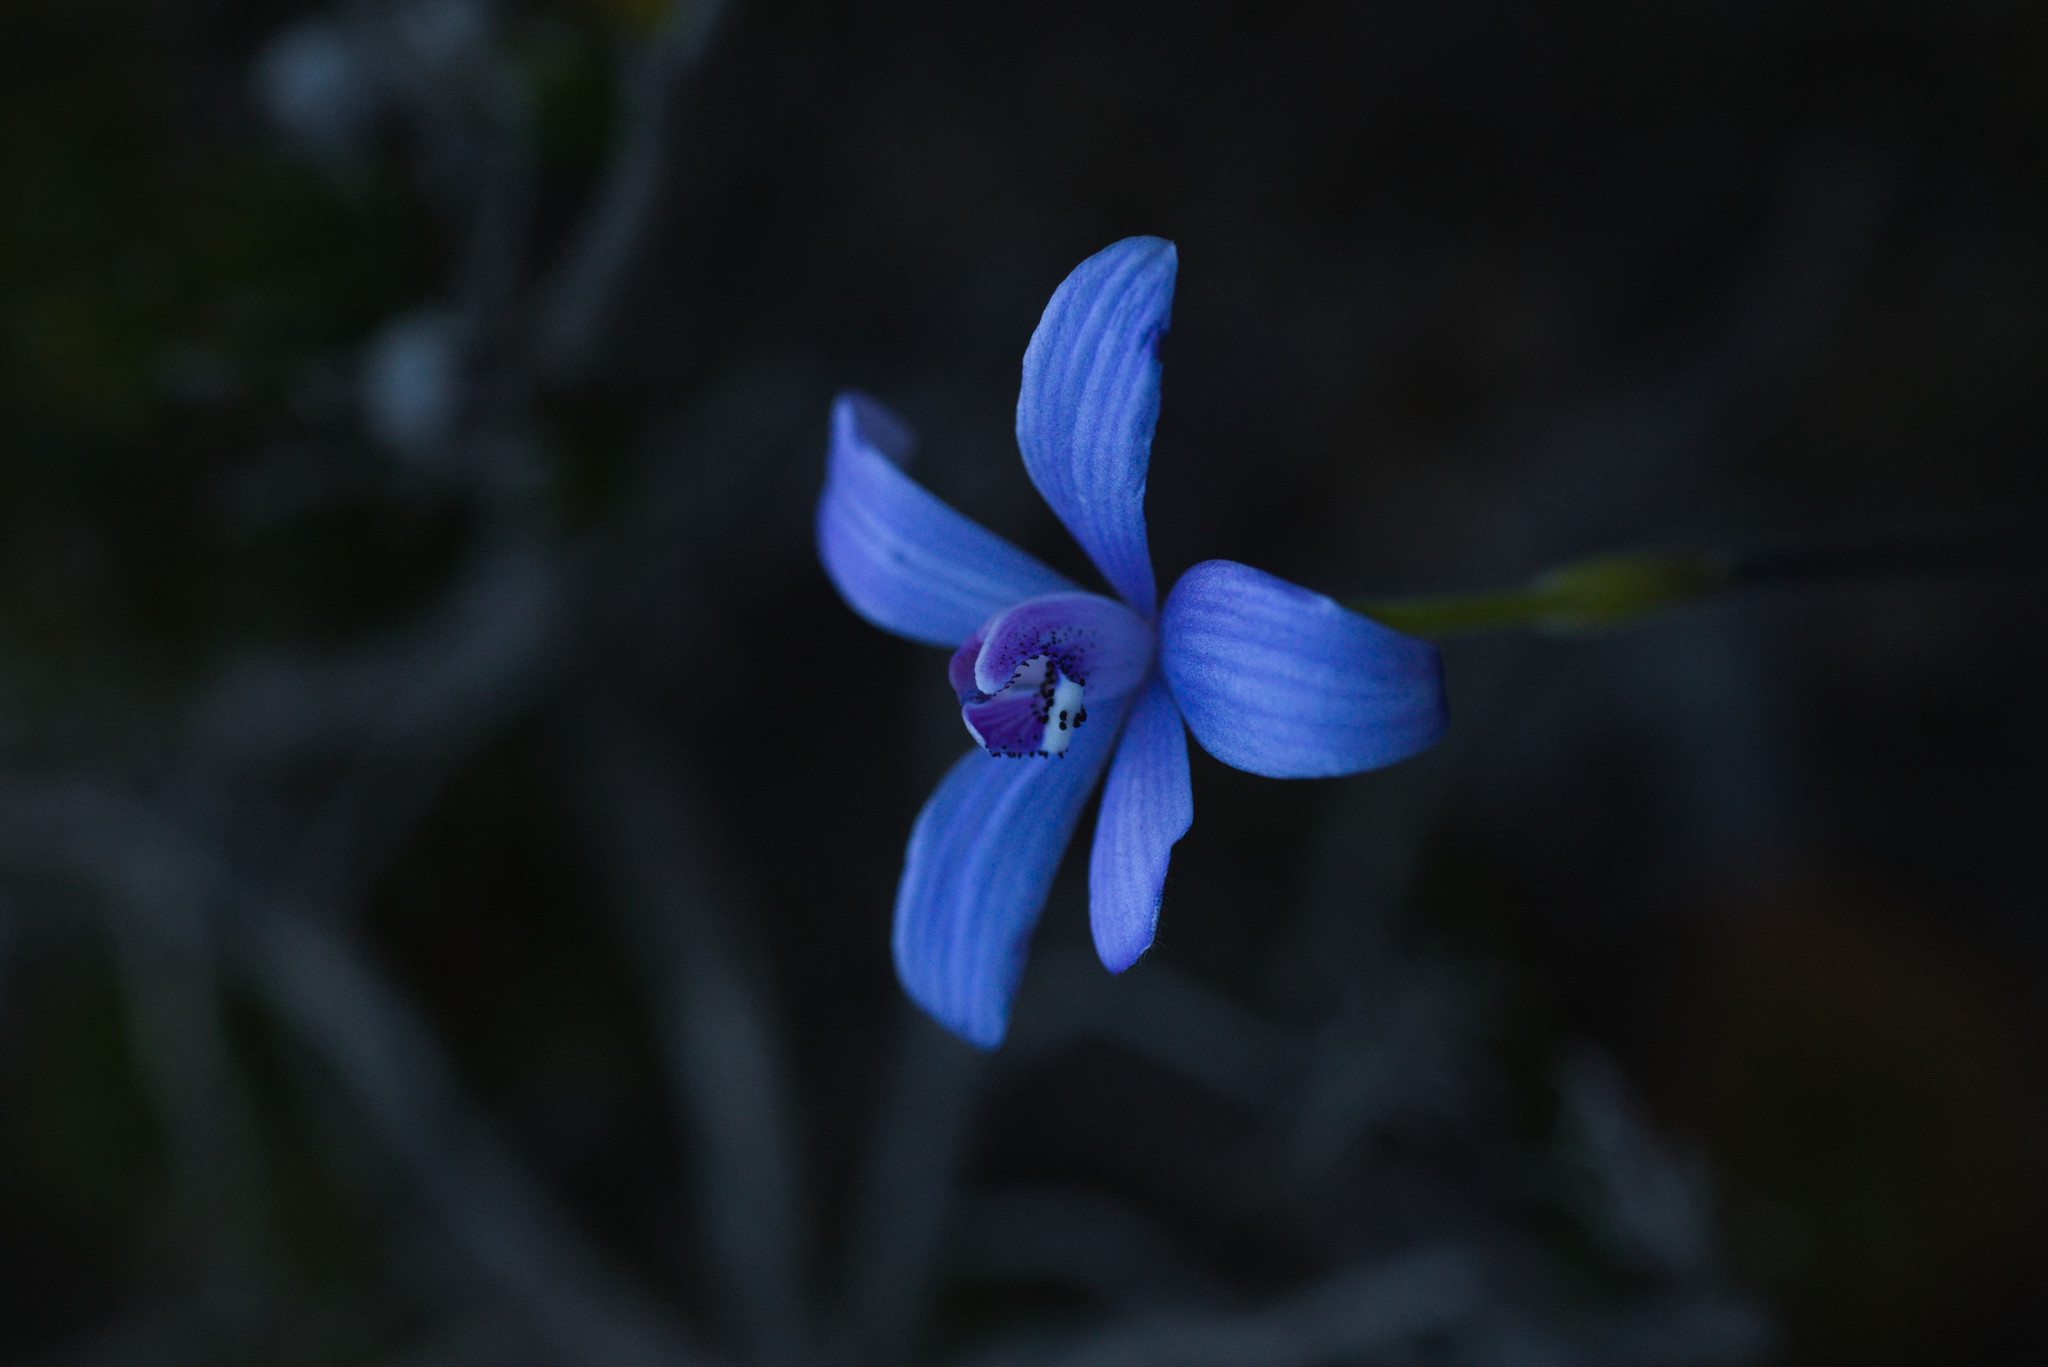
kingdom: Plantae
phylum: Tracheophyta
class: Liliopsida
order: Asparagales
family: Orchidaceae
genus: Caladenia
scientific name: Caladenia sericea
